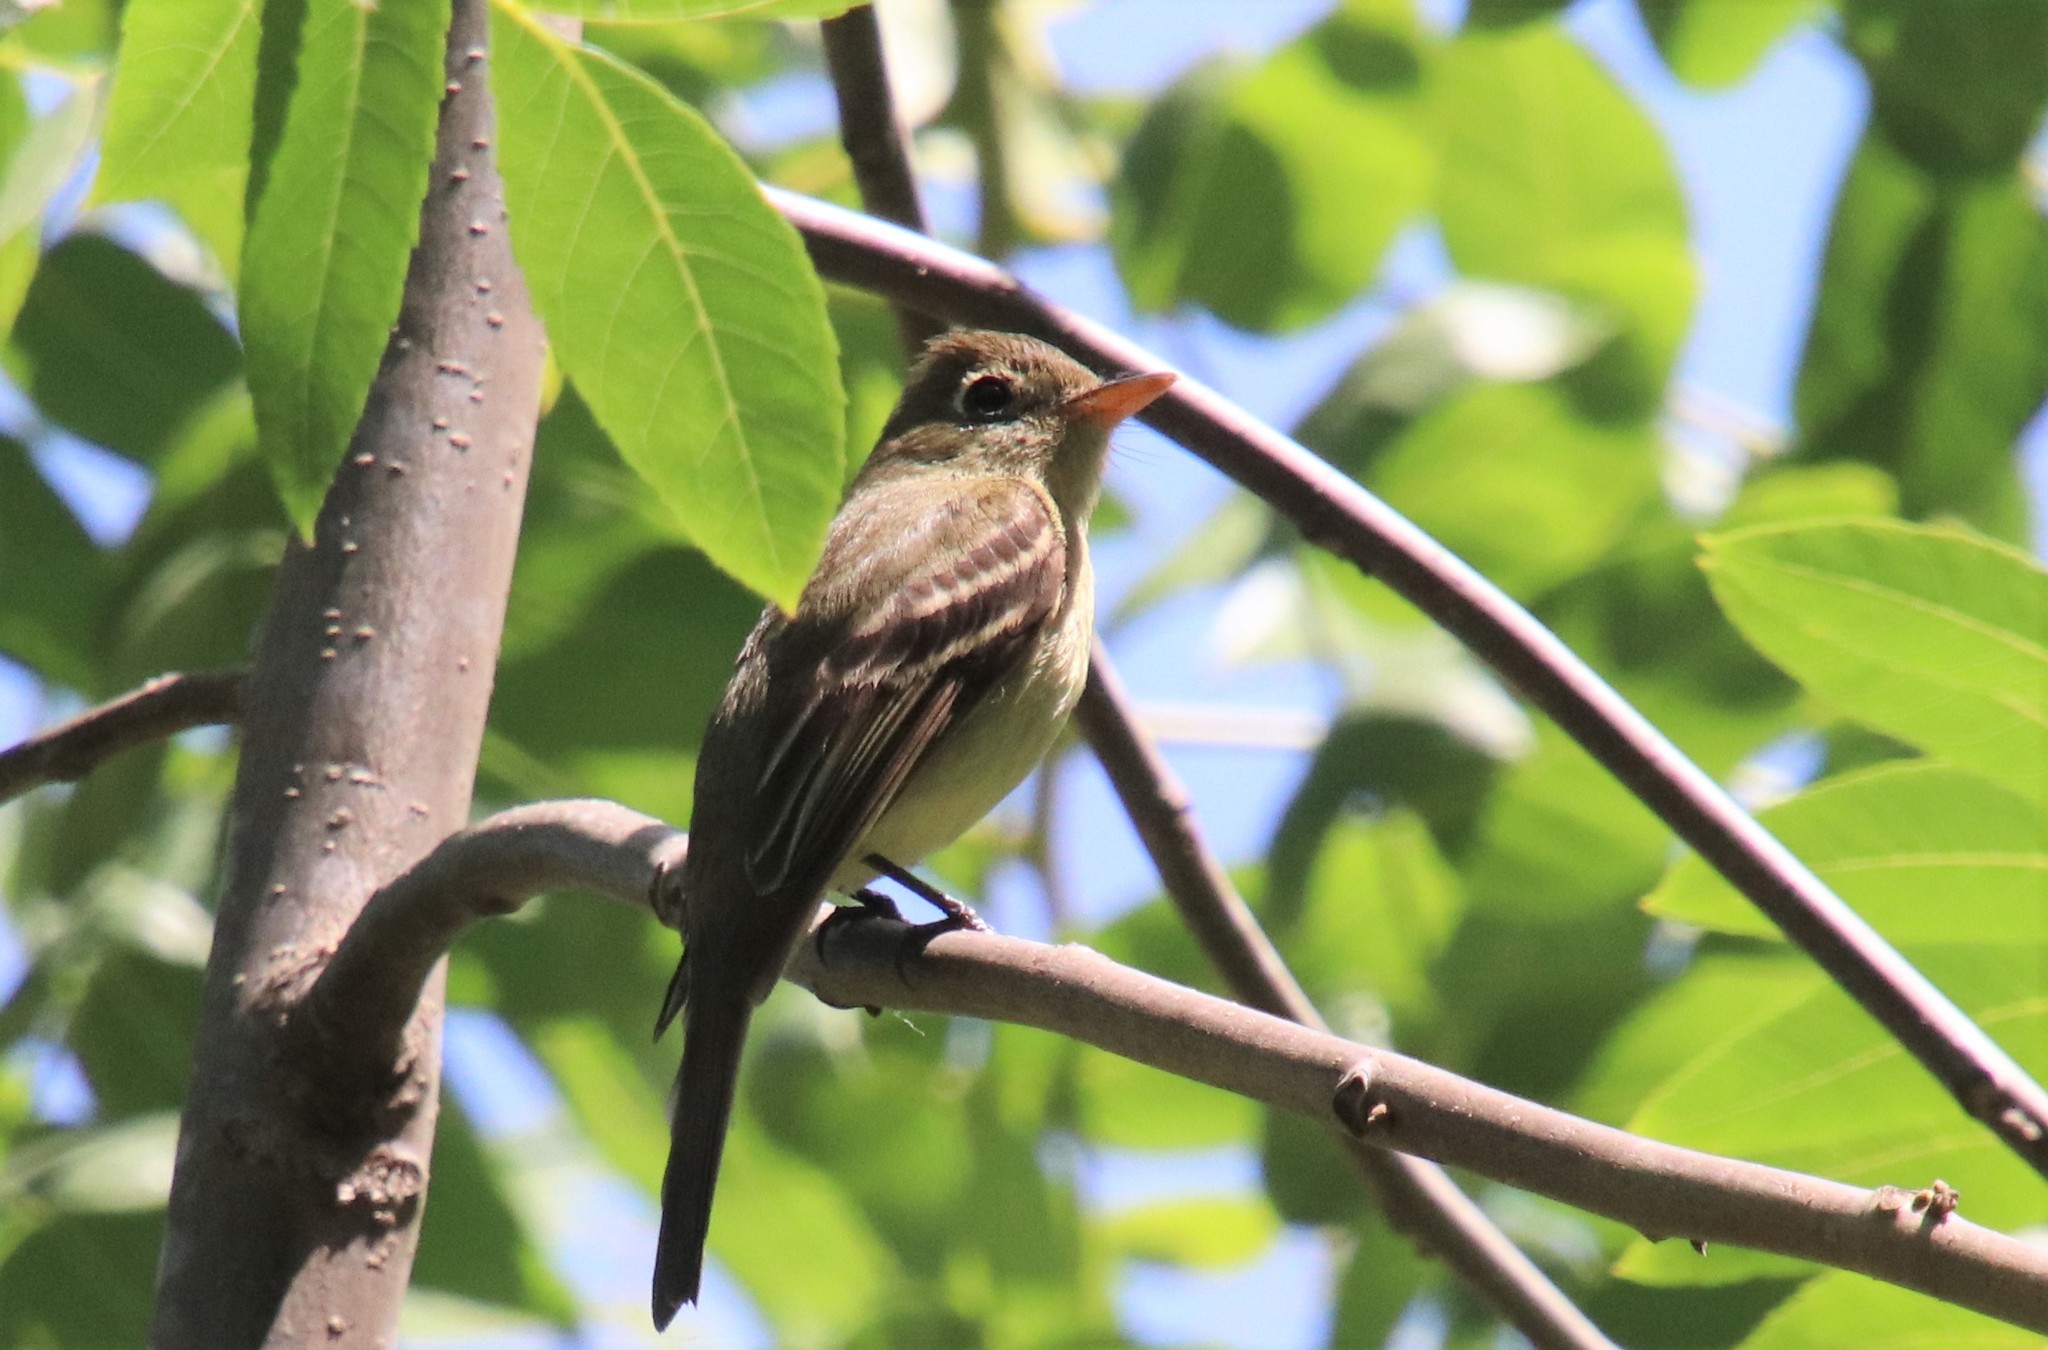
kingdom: Animalia
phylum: Chordata
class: Aves
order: Passeriformes
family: Tyrannidae
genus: Empidonax
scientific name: Empidonax difficilis
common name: Pacific-slope flycatcher
